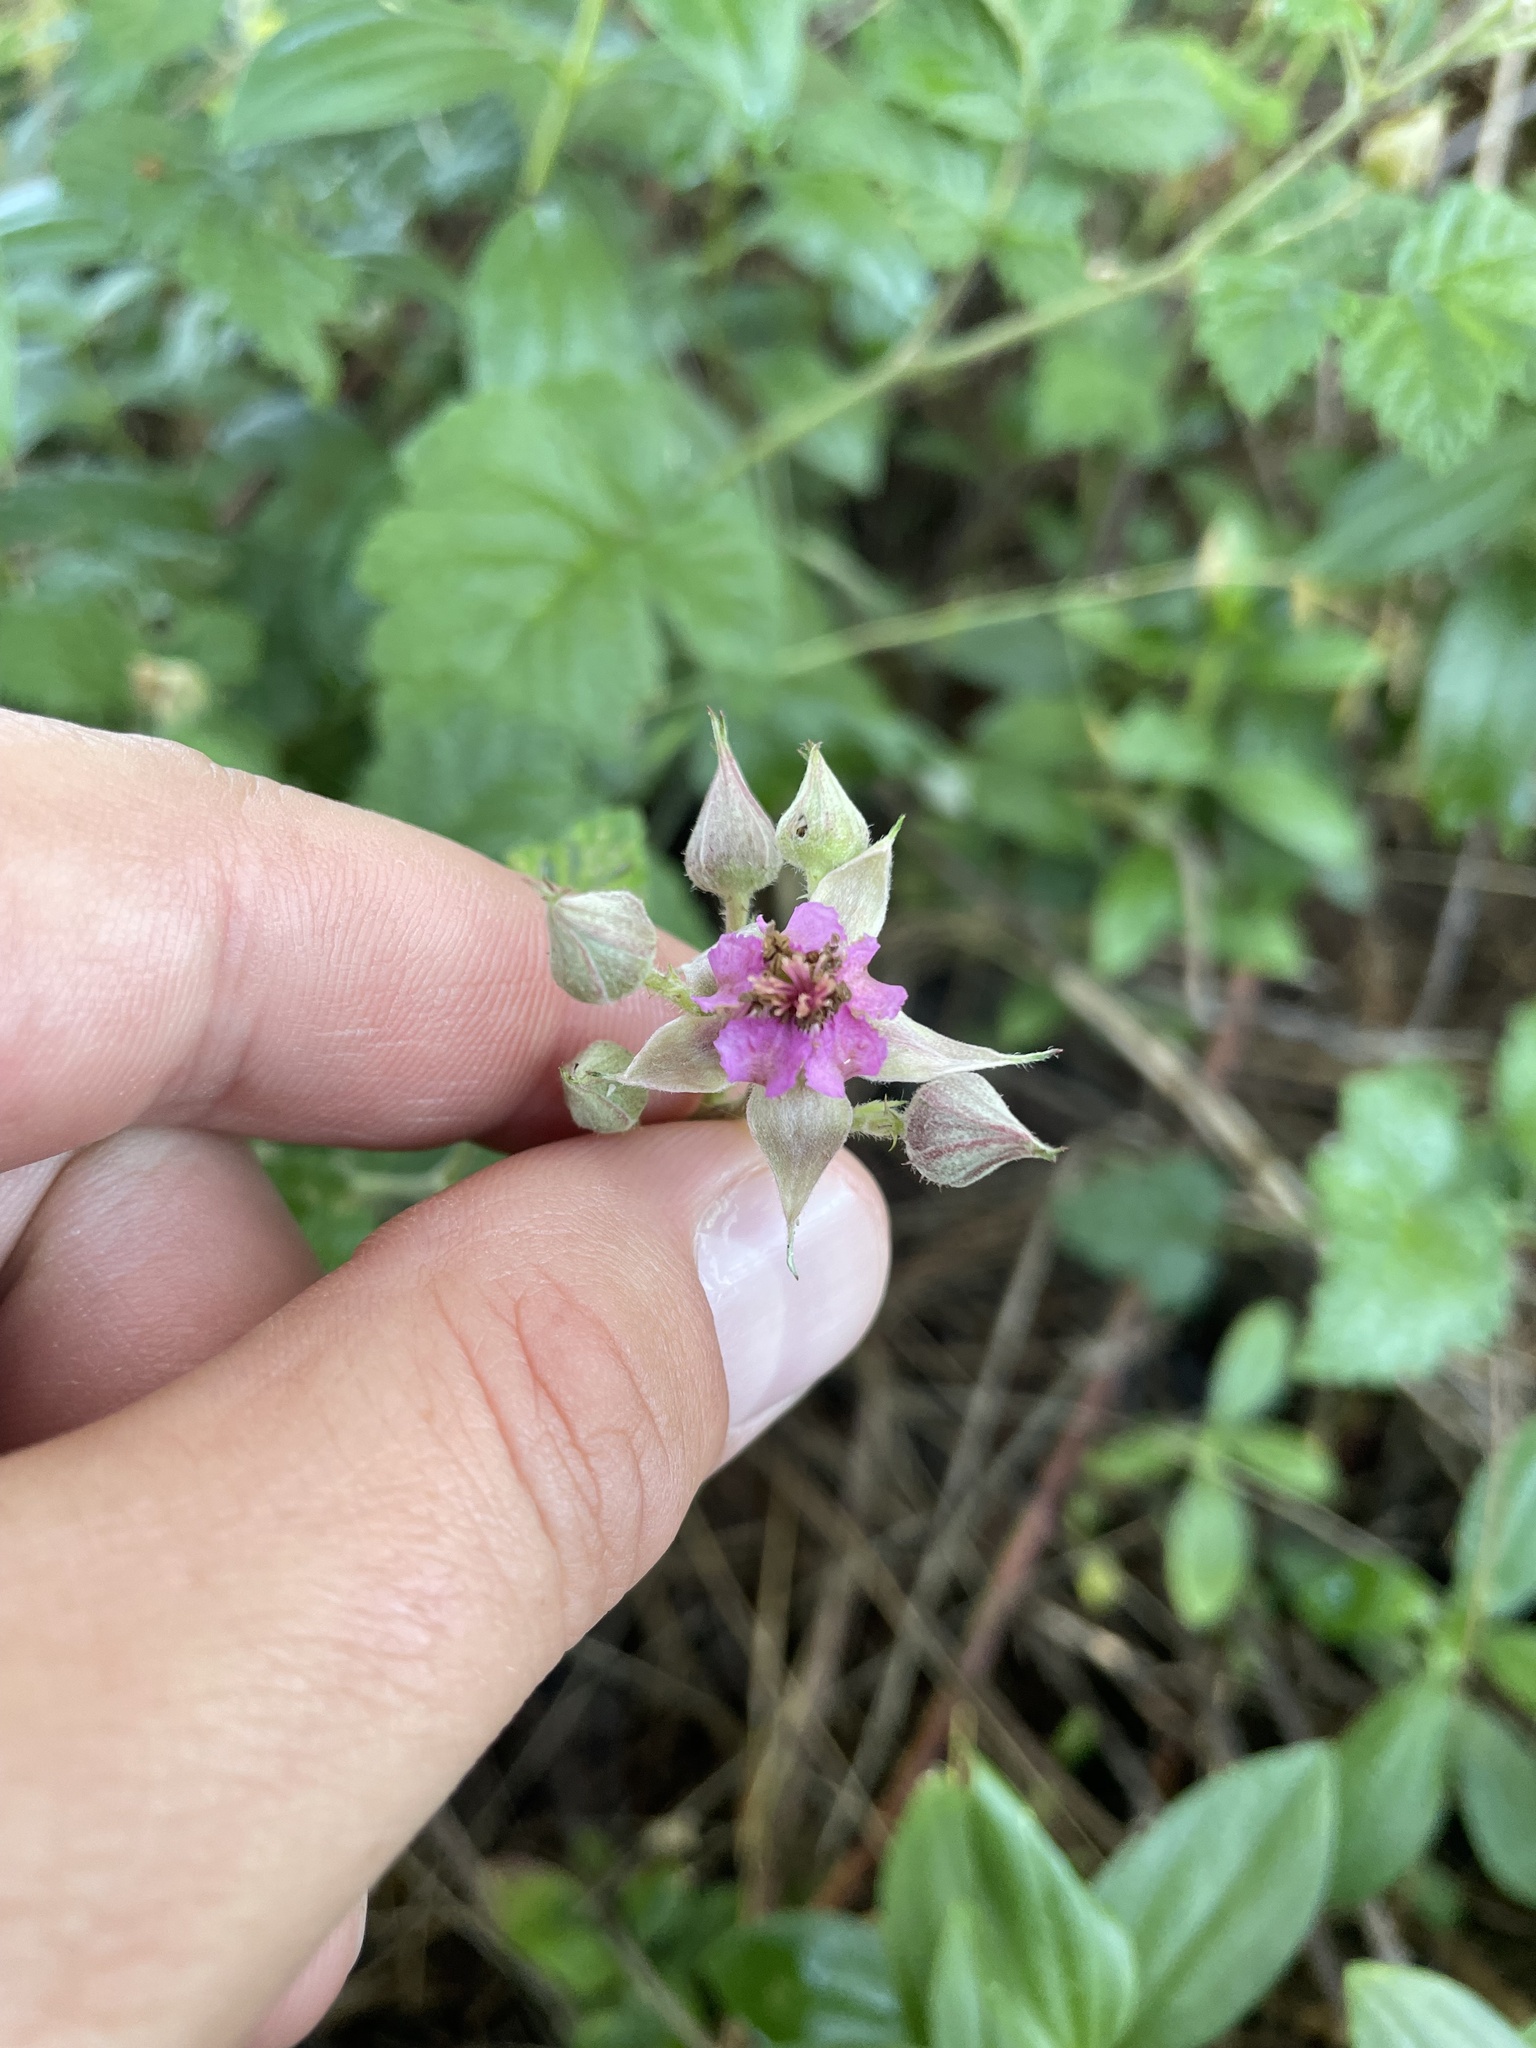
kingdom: Plantae
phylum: Tracheophyta
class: Magnoliopsida
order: Rosales
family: Rosaceae
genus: Rubus
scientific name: Rubus parvifolius
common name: Threeleaf blackberry
